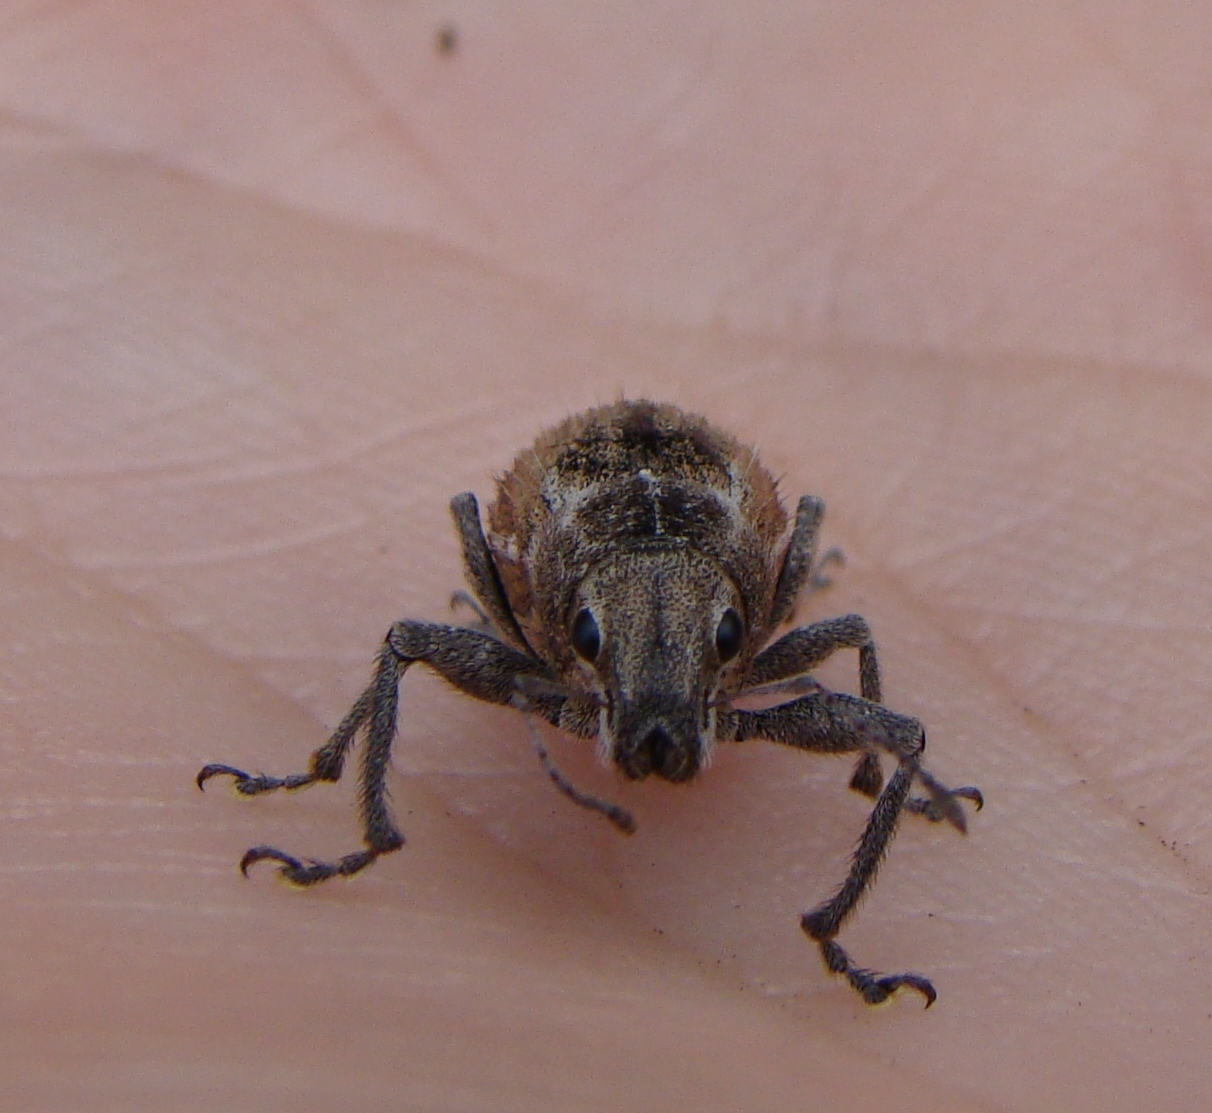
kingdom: Animalia
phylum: Arthropoda
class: Insecta
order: Coleoptera
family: Curculionidae
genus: Naupactus
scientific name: Naupactus leucoloma
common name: Whitefringed beetle
